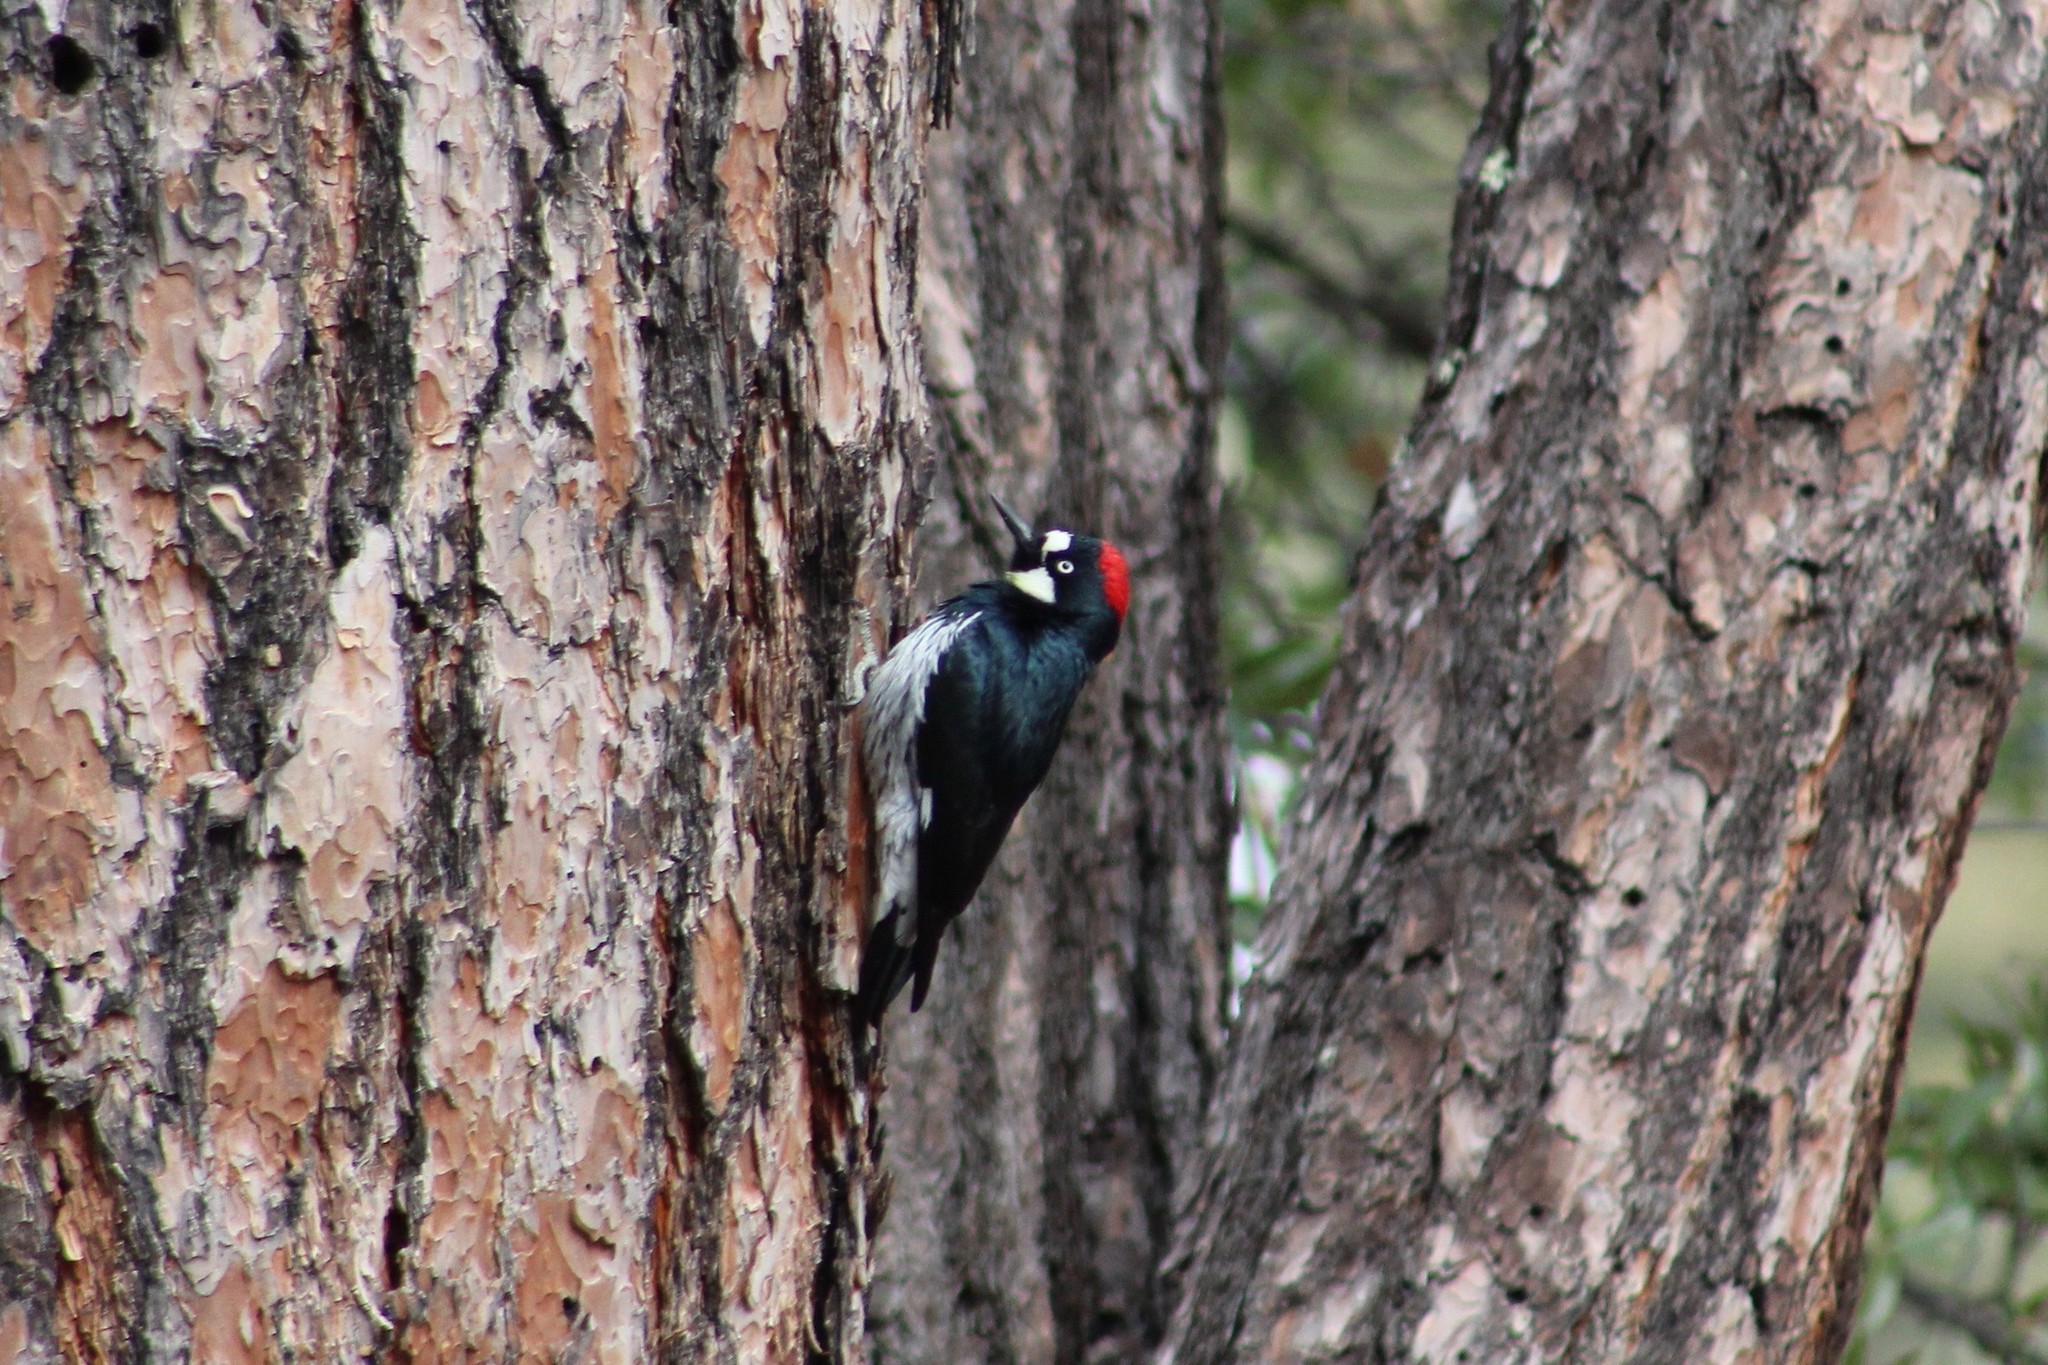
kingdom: Animalia
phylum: Chordata
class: Aves
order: Piciformes
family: Picidae
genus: Melanerpes
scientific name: Melanerpes formicivorus
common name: Acorn woodpecker
